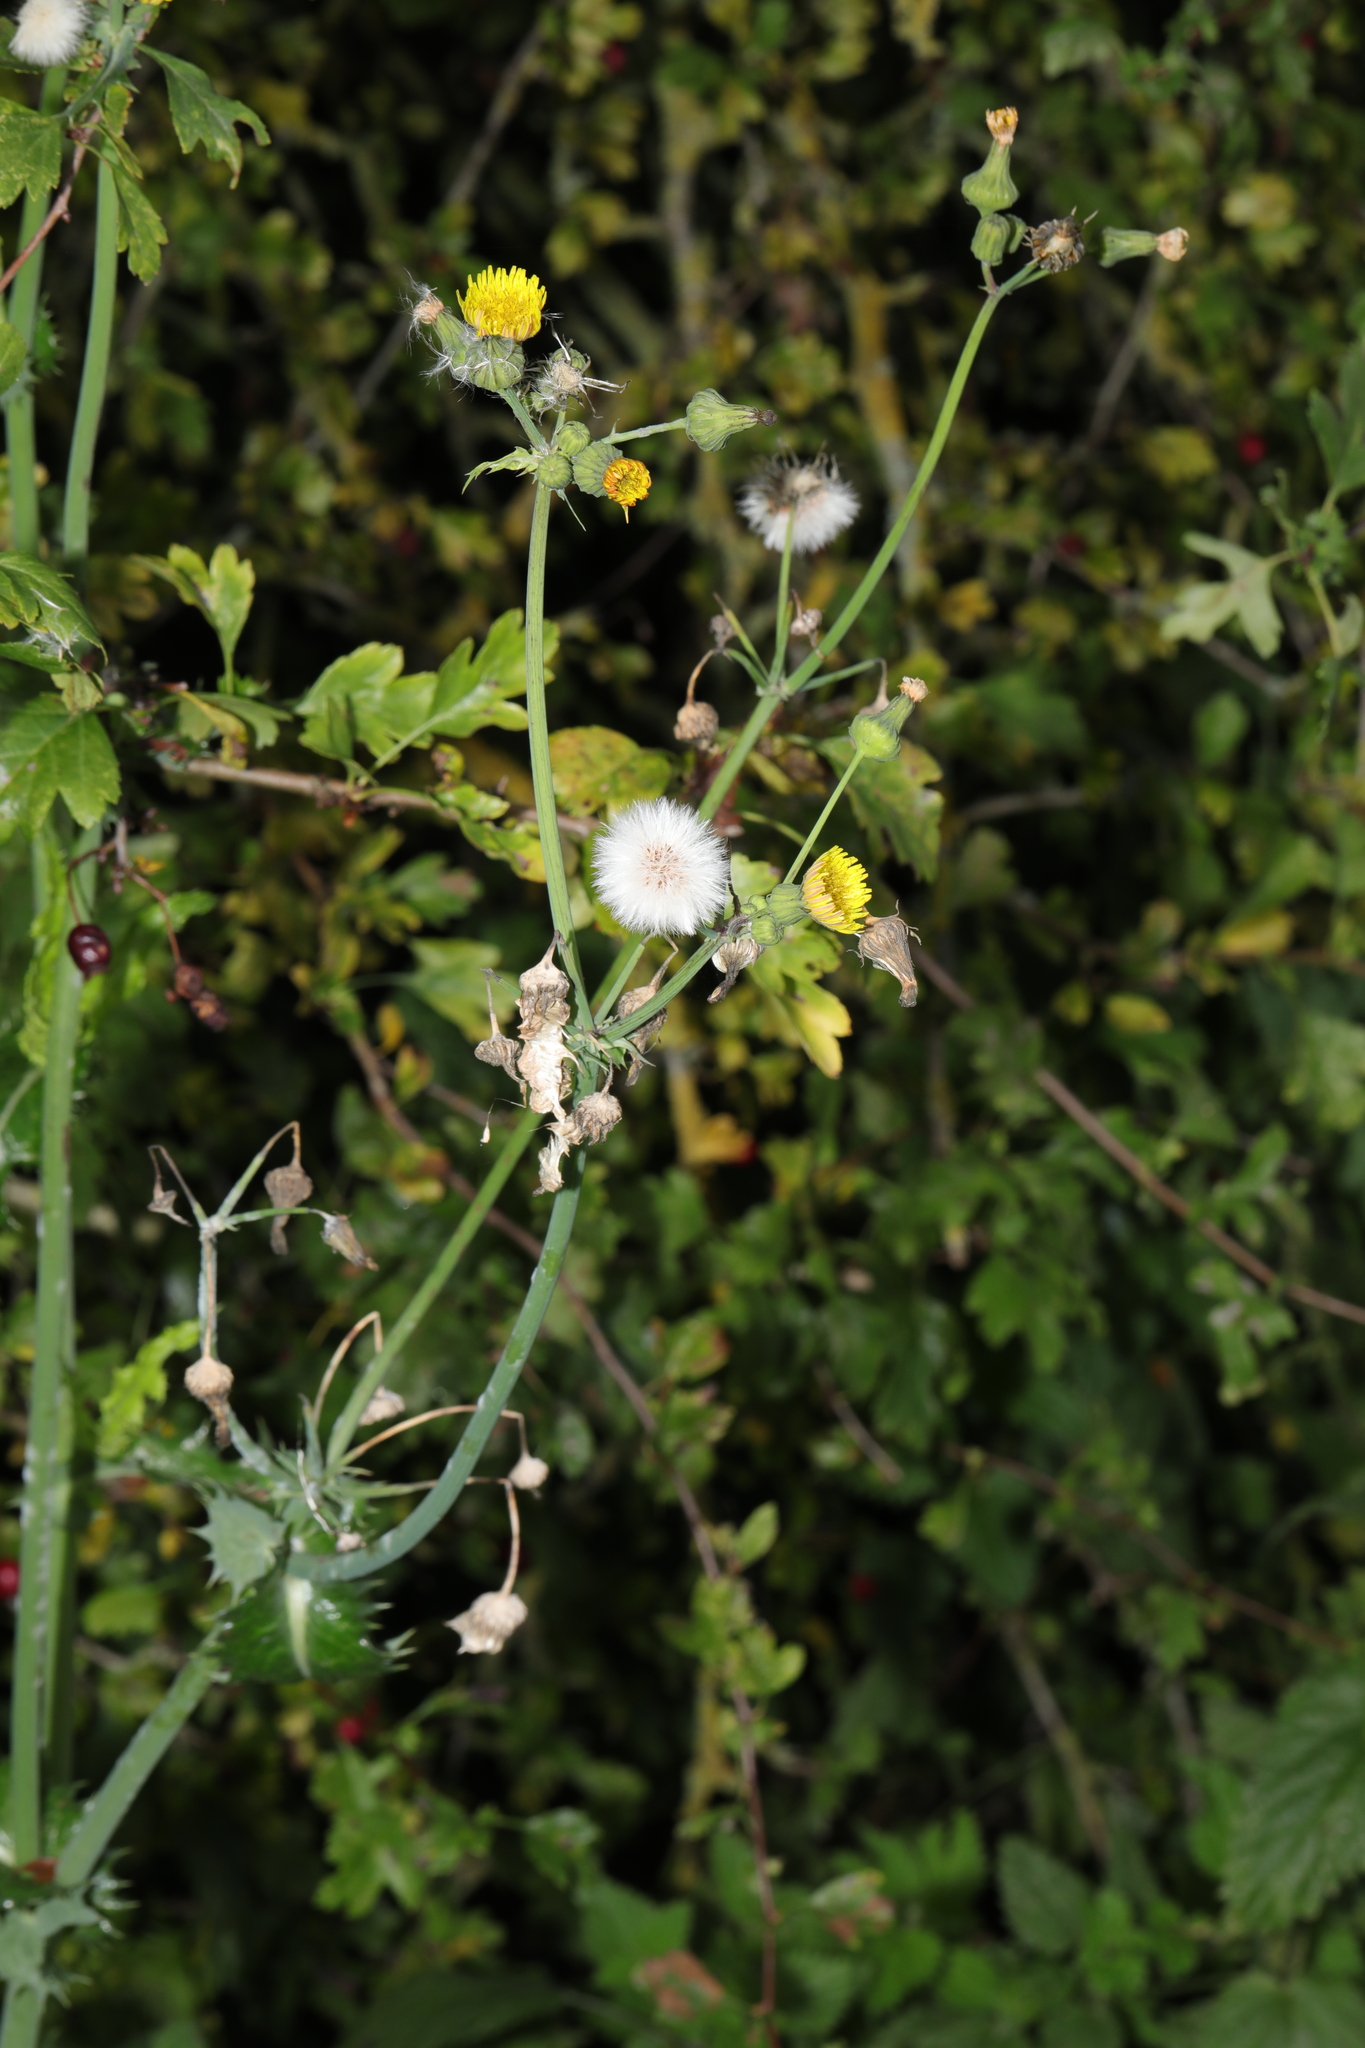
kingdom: Plantae
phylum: Tracheophyta
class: Magnoliopsida
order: Asterales
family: Asteraceae
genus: Sonchus
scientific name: Sonchus asper
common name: Prickly sow-thistle
